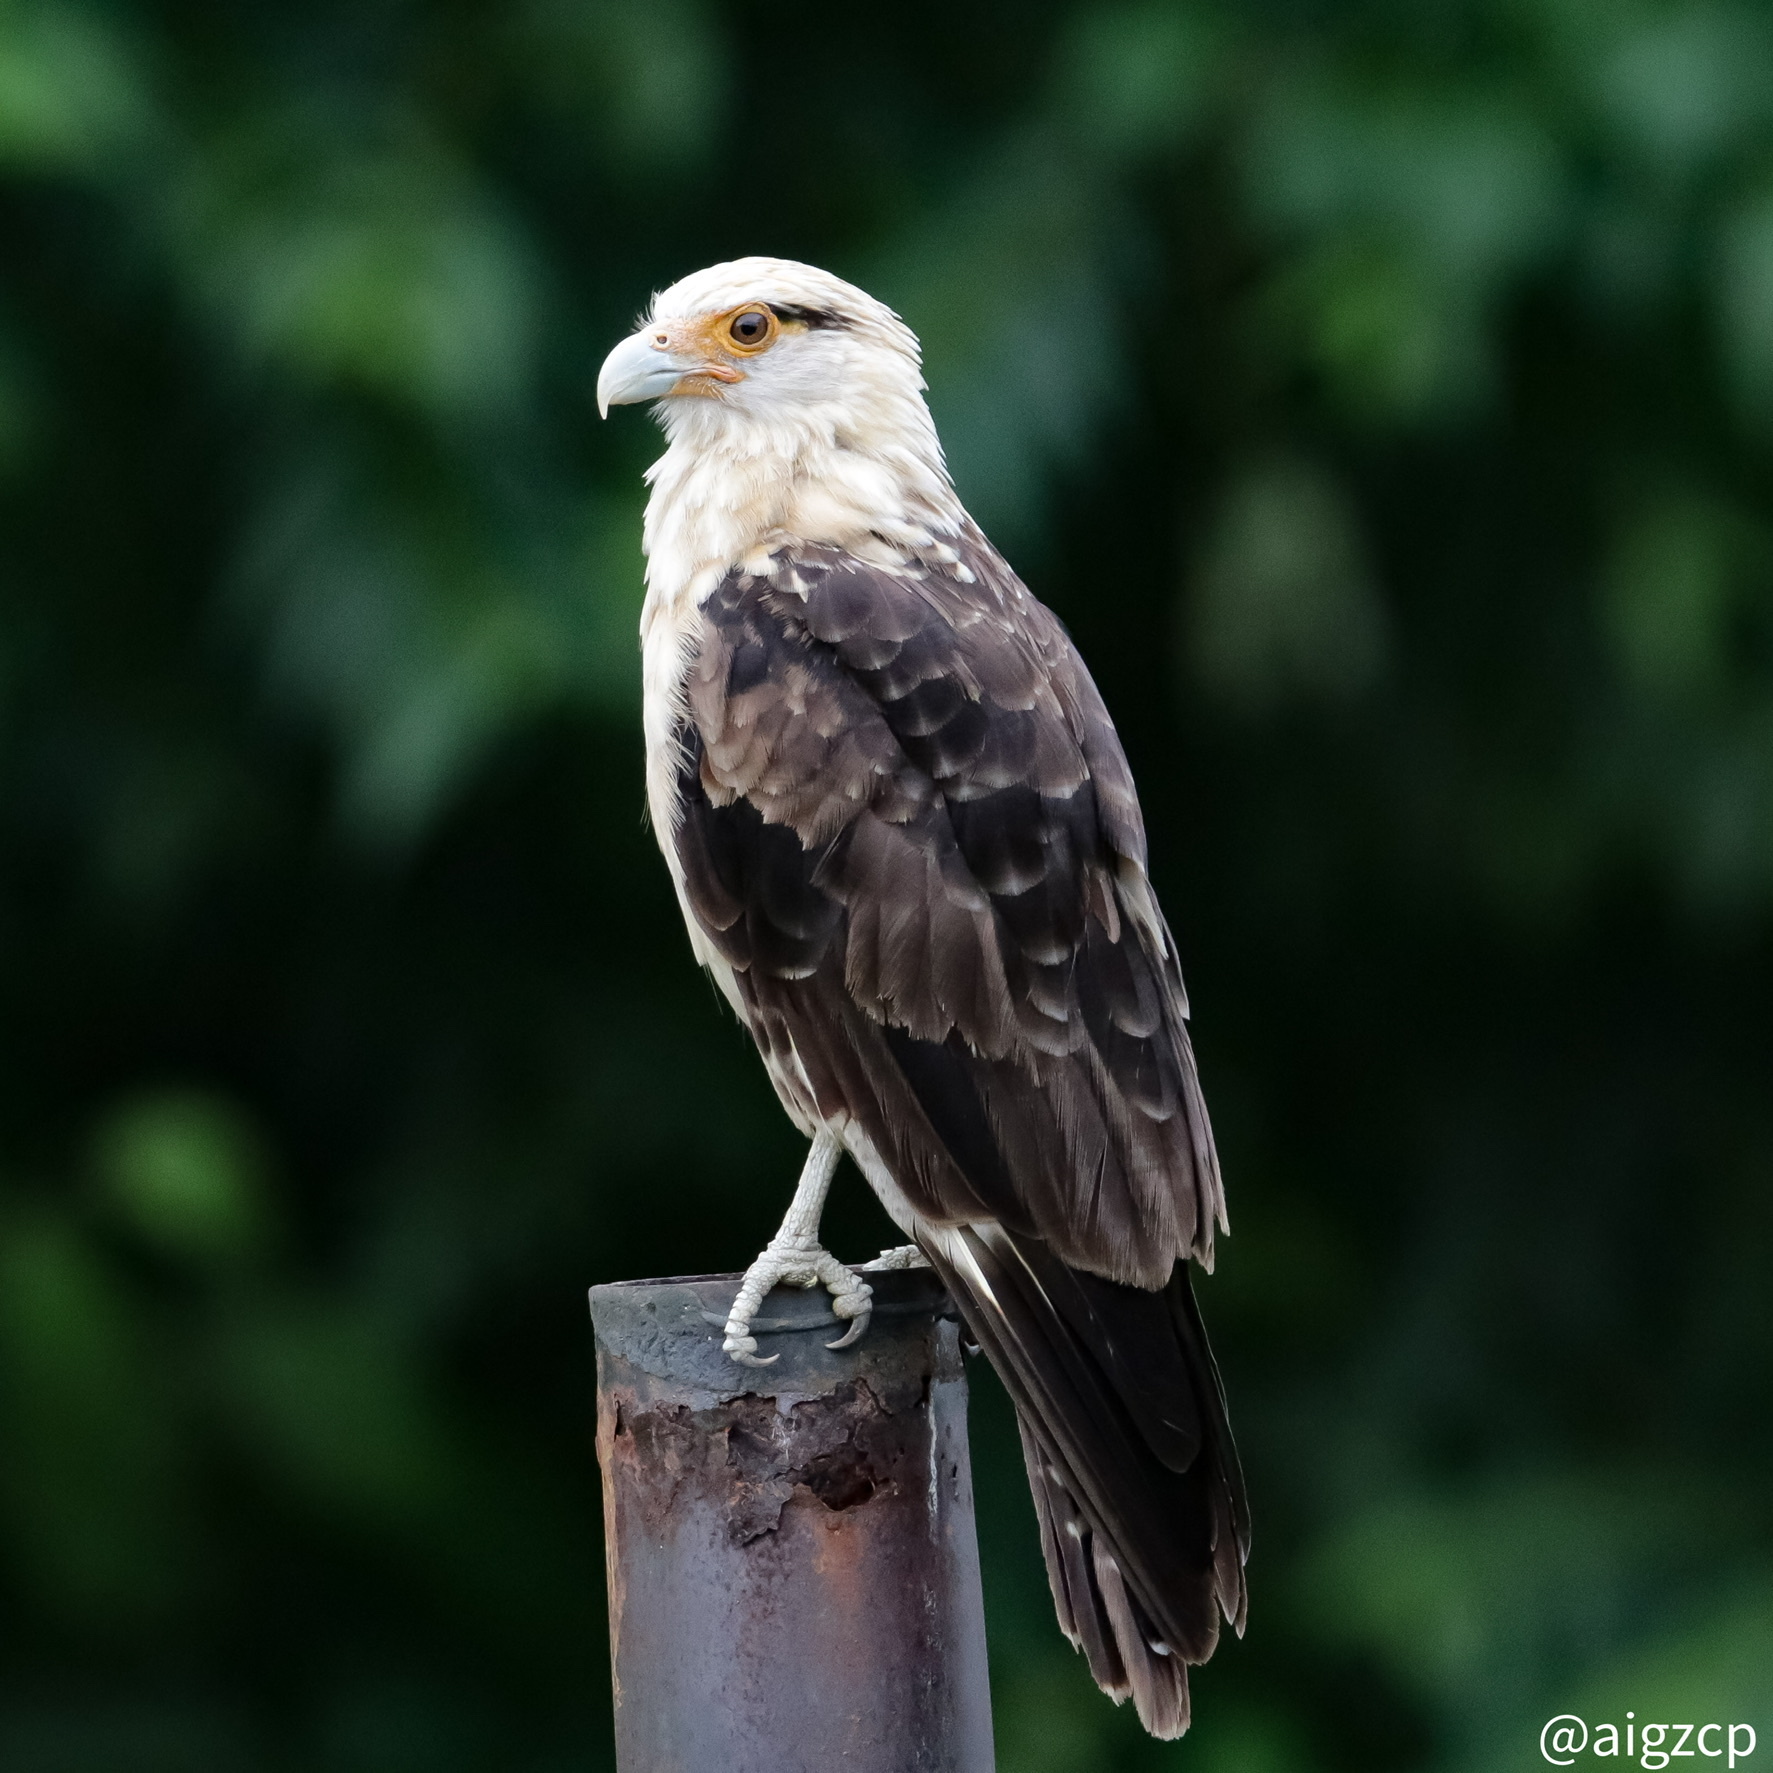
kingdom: Animalia
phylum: Chordata
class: Aves
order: Falconiformes
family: Falconidae
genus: Daptrius
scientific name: Daptrius
